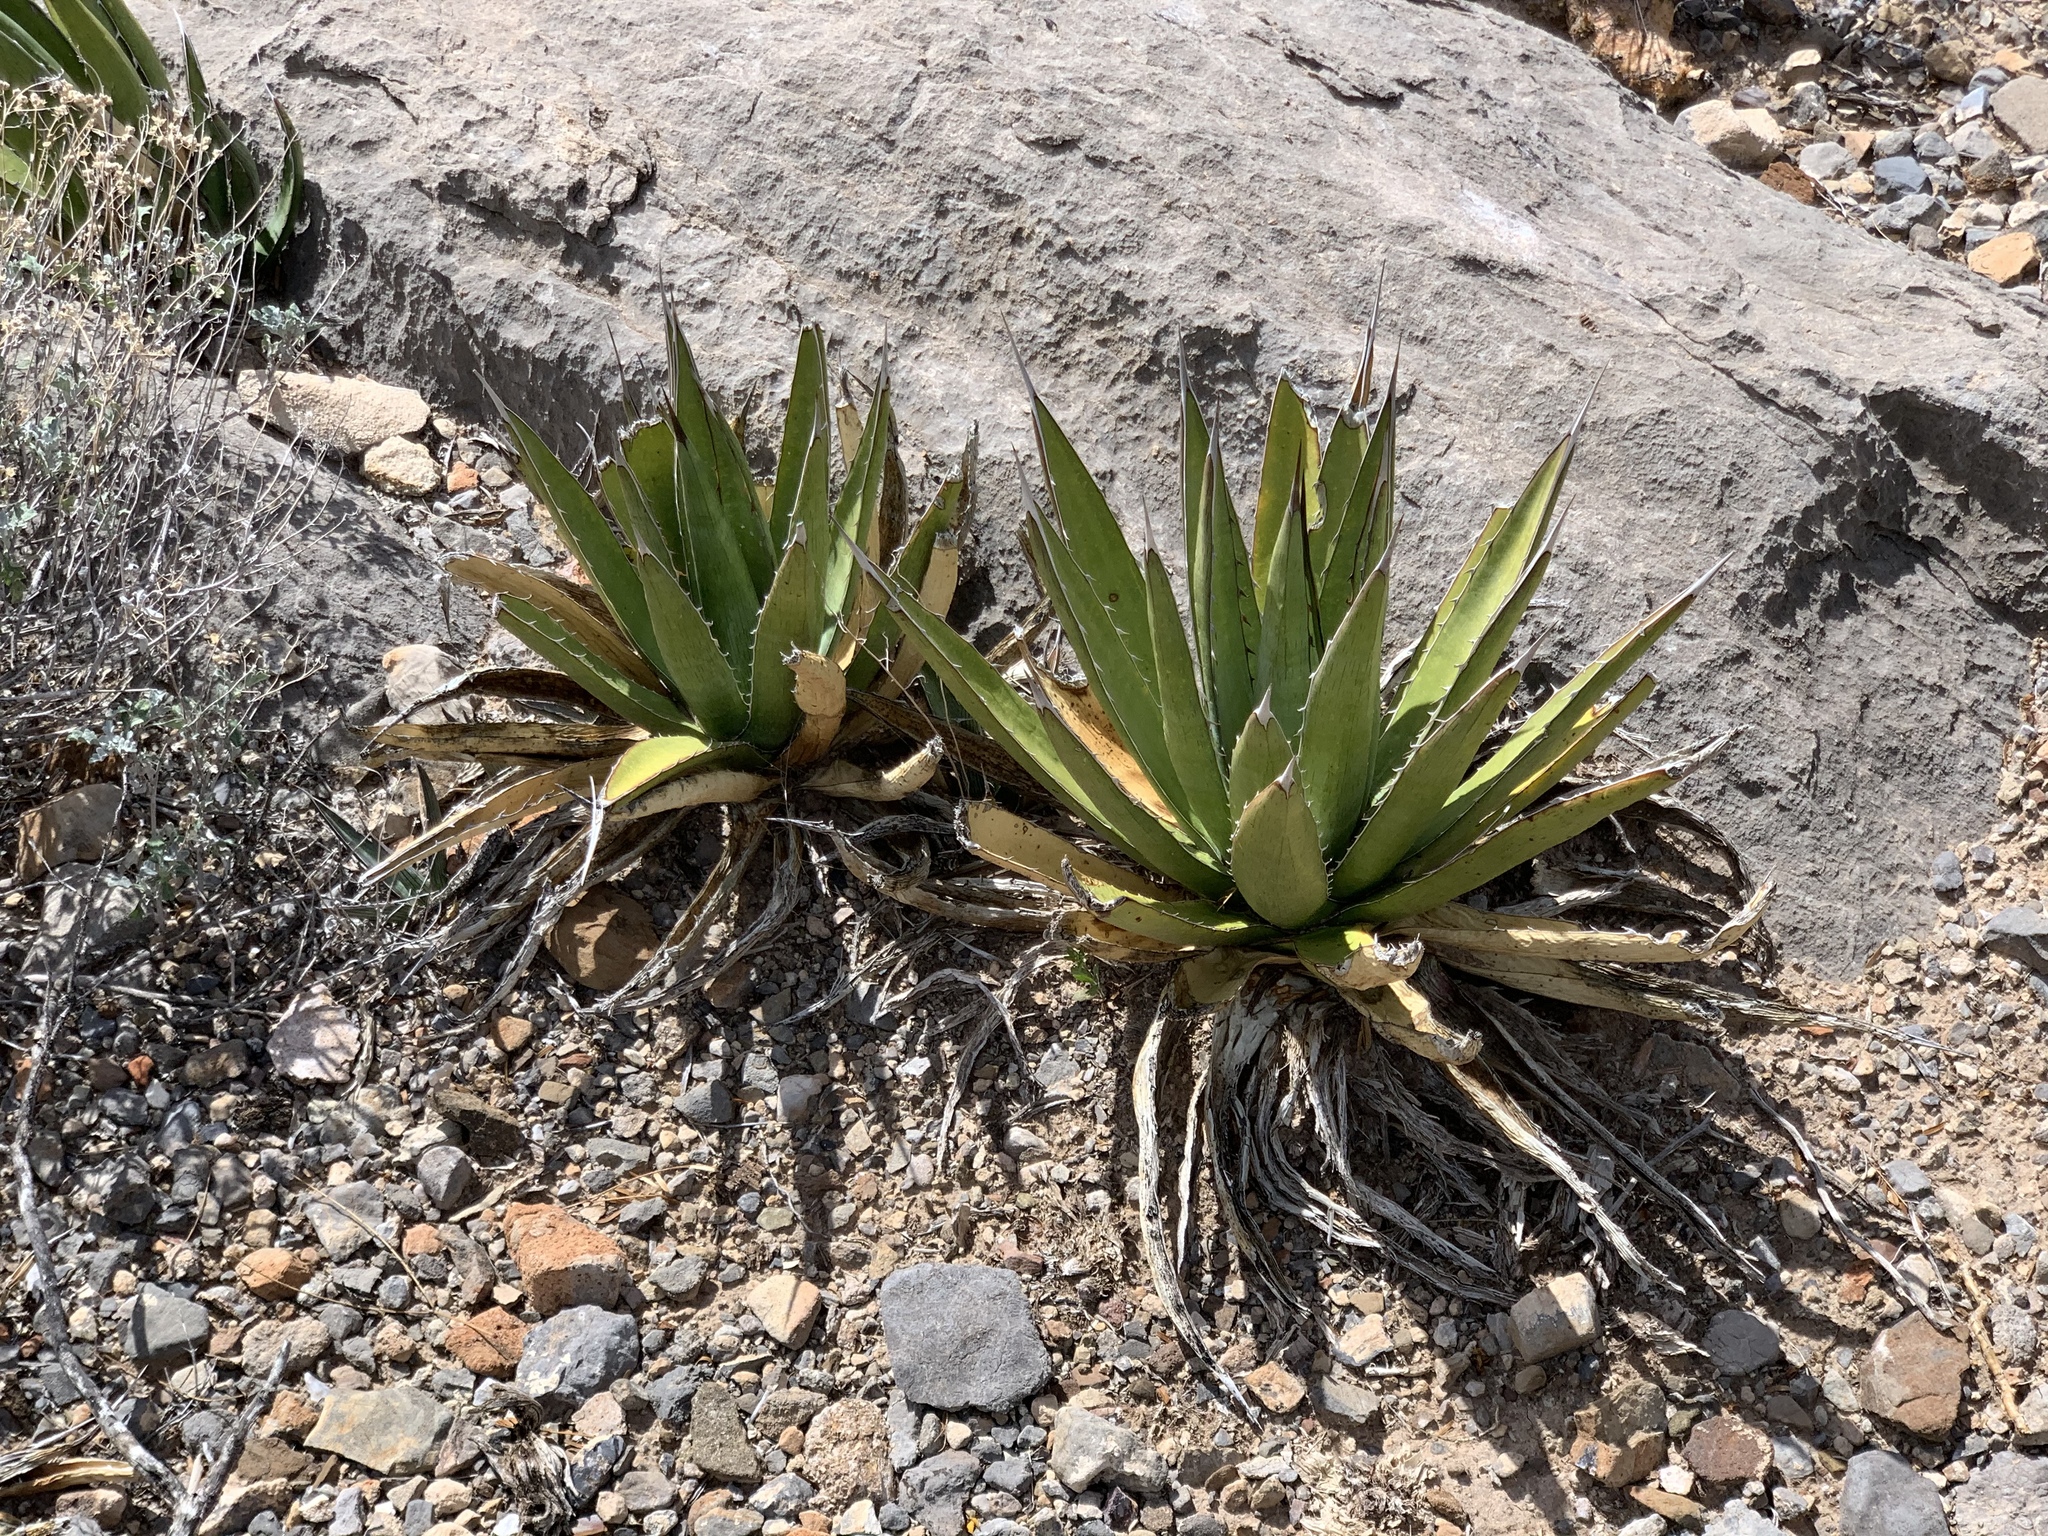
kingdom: Plantae
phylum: Tracheophyta
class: Liliopsida
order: Asparagales
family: Asparagaceae
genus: Agave
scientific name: Agave lechuguilla
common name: Lecheguilla agave
